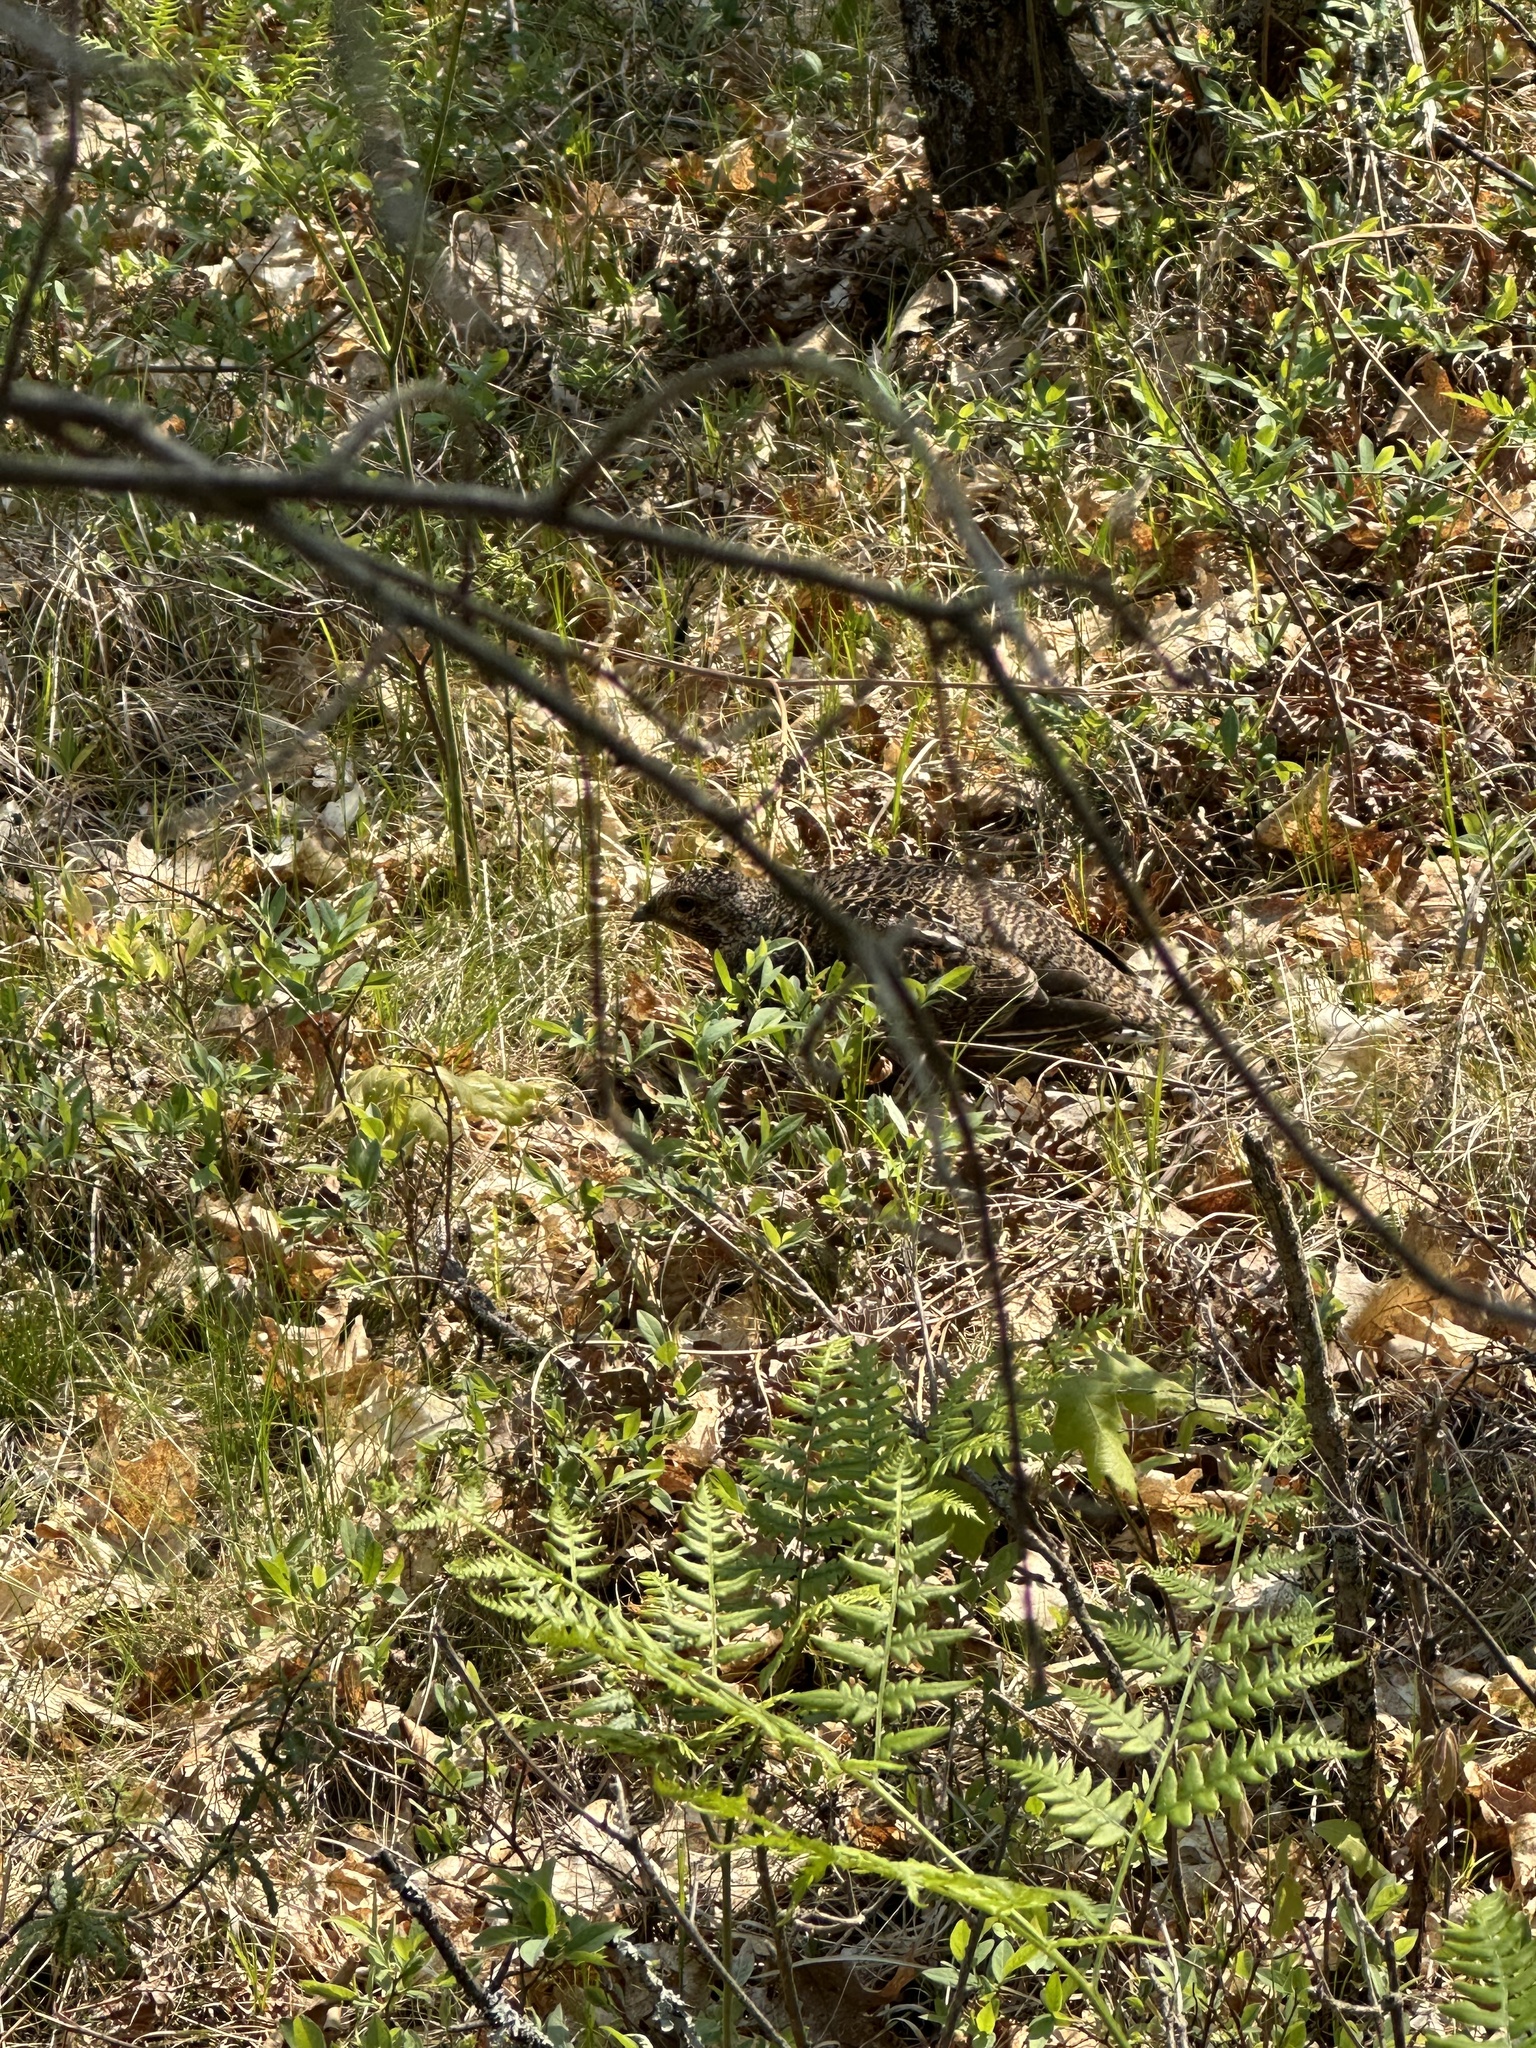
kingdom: Animalia
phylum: Chordata
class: Aves
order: Galliformes
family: Phasianidae
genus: Canachites
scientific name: Canachites canadensis
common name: Spruce grouse
